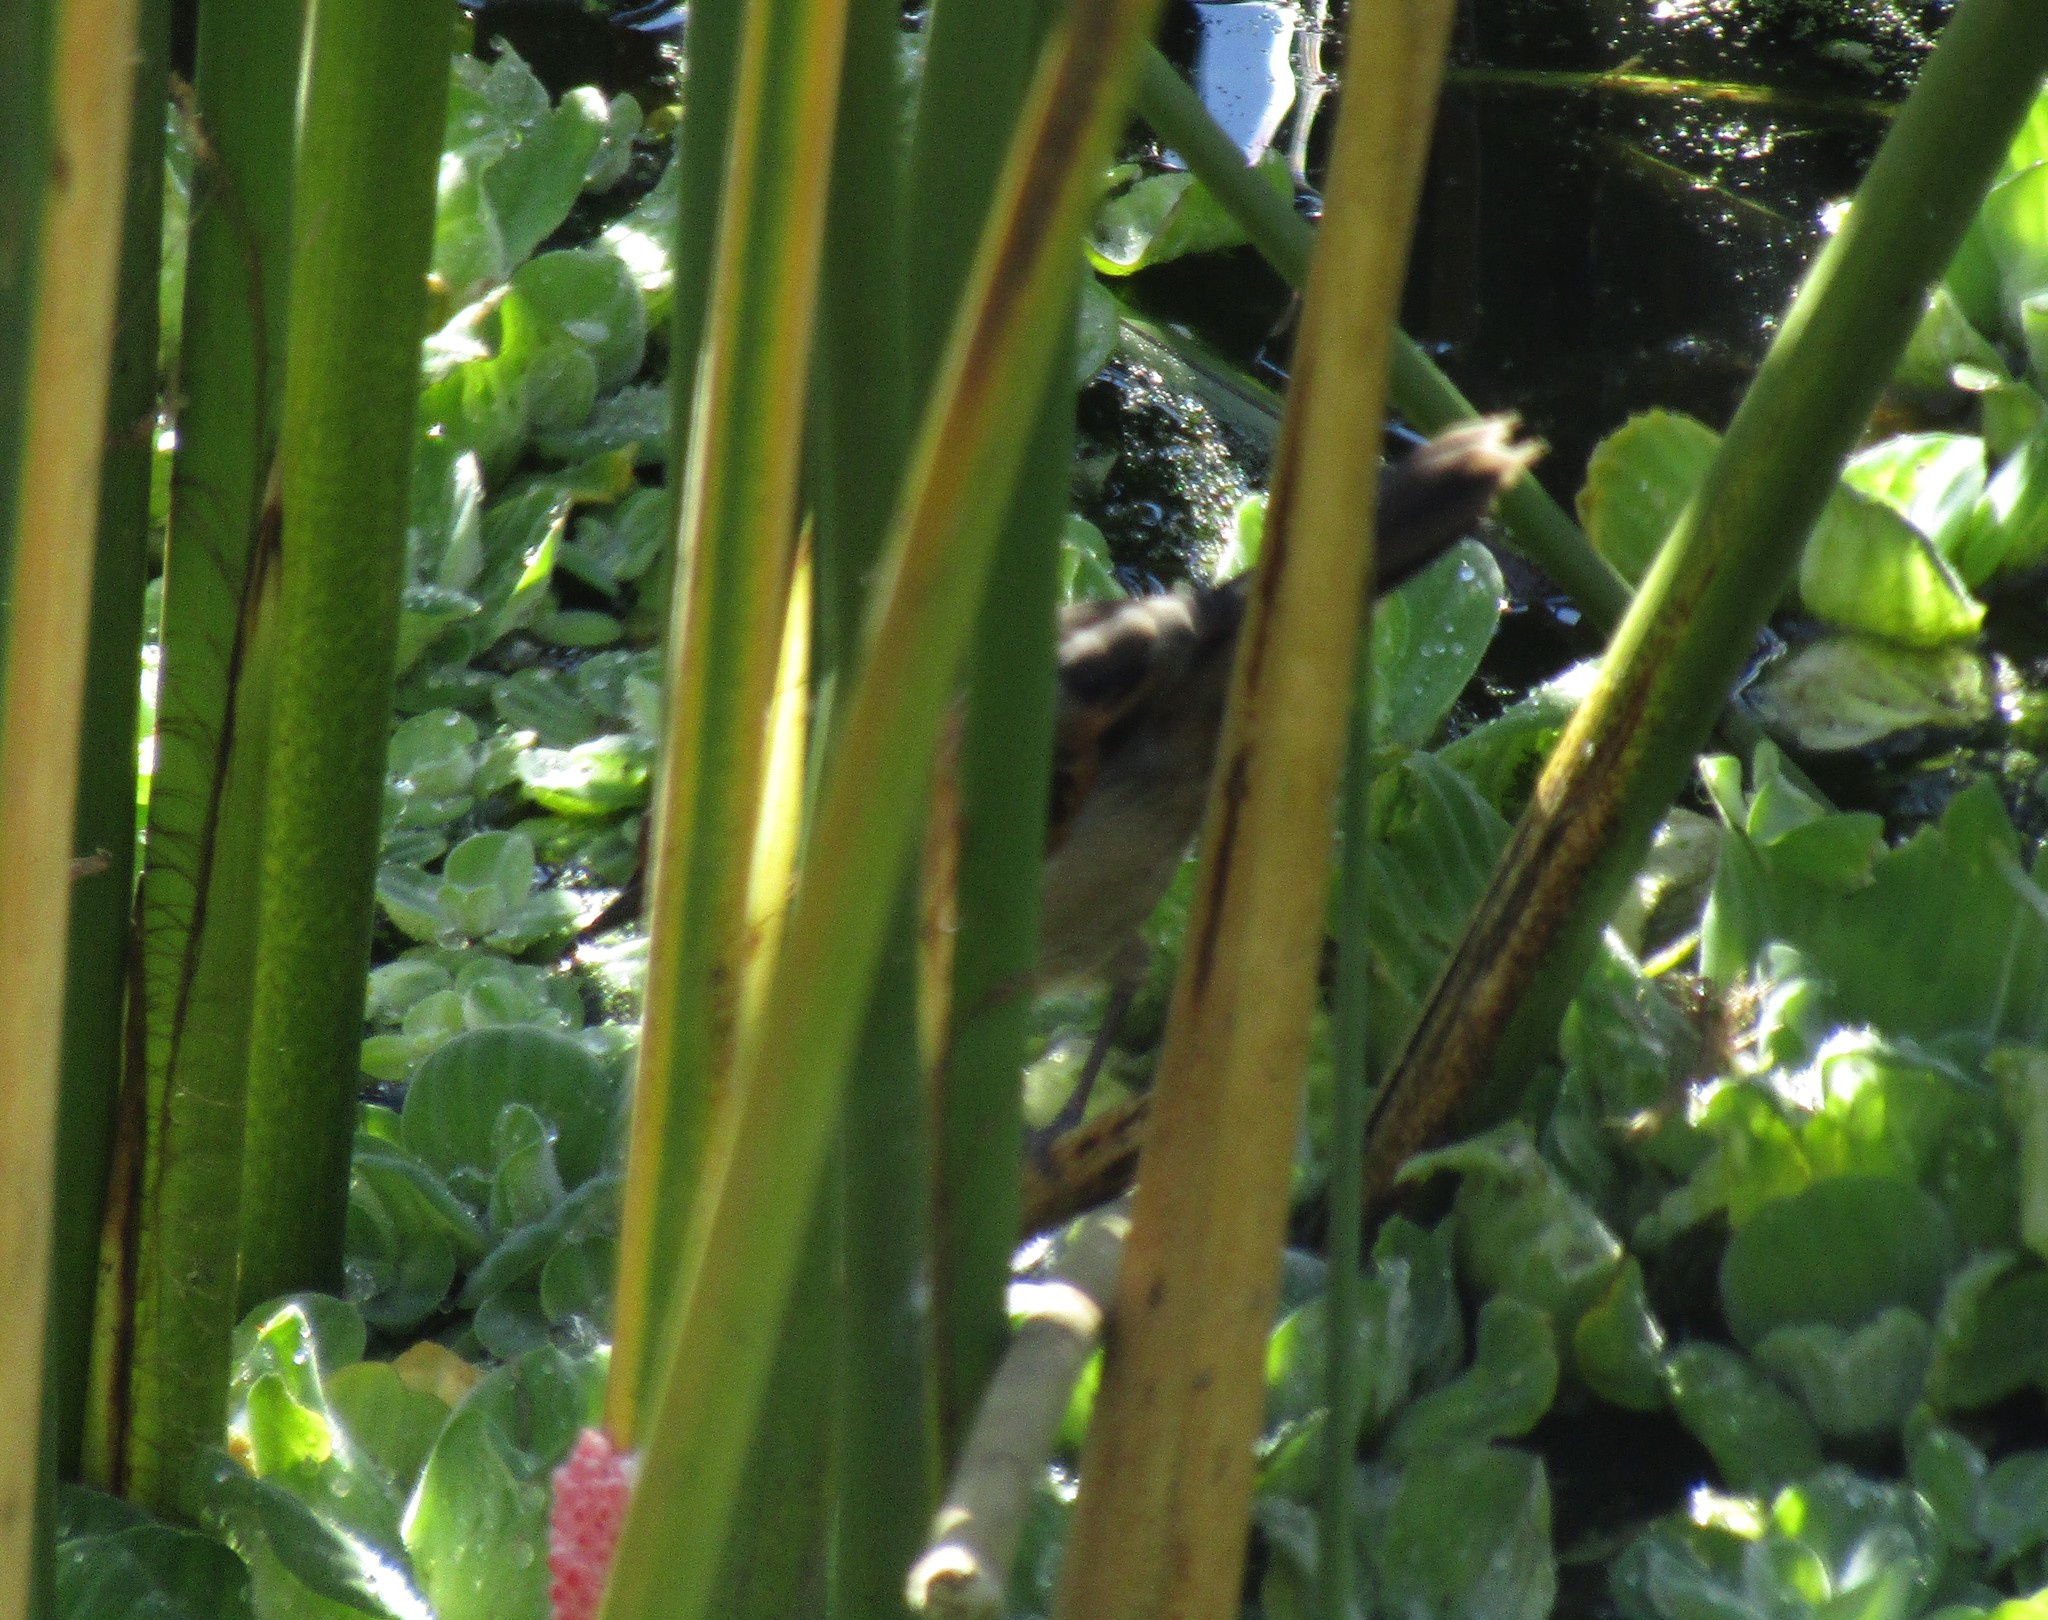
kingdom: Animalia
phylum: Chordata
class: Aves
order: Passeriformes
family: Furnariidae
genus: Phleocryptes
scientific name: Phleocryptes melanops
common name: Wren-like rushbird
